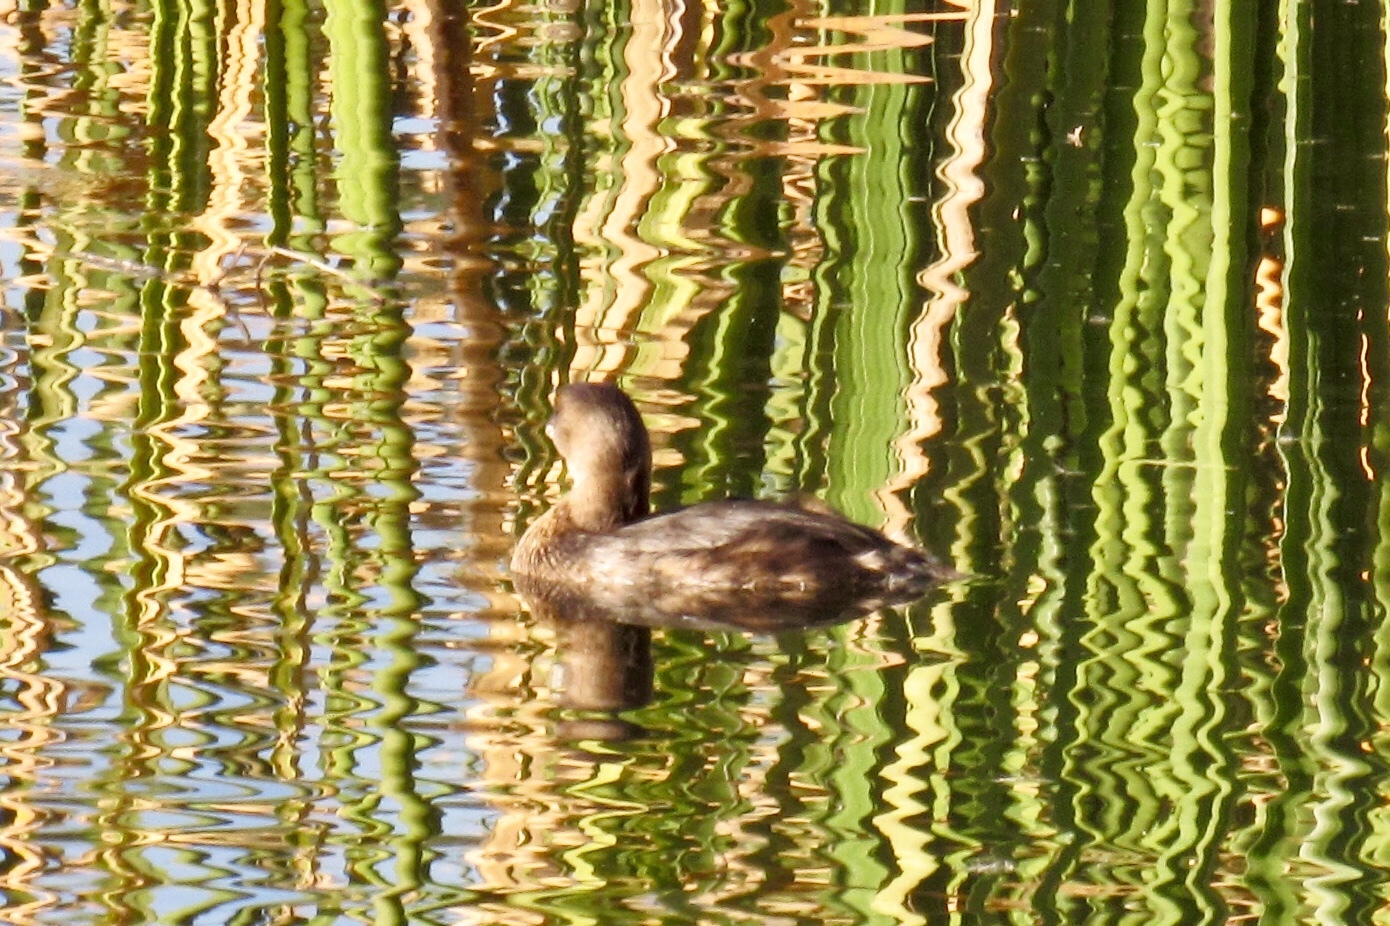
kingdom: Animalia
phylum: Chordata
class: Aves
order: Podicipediformes
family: Podicipedidae
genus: Podilymbus
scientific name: Podilymbus podiceps
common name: Pied-billed grebe
